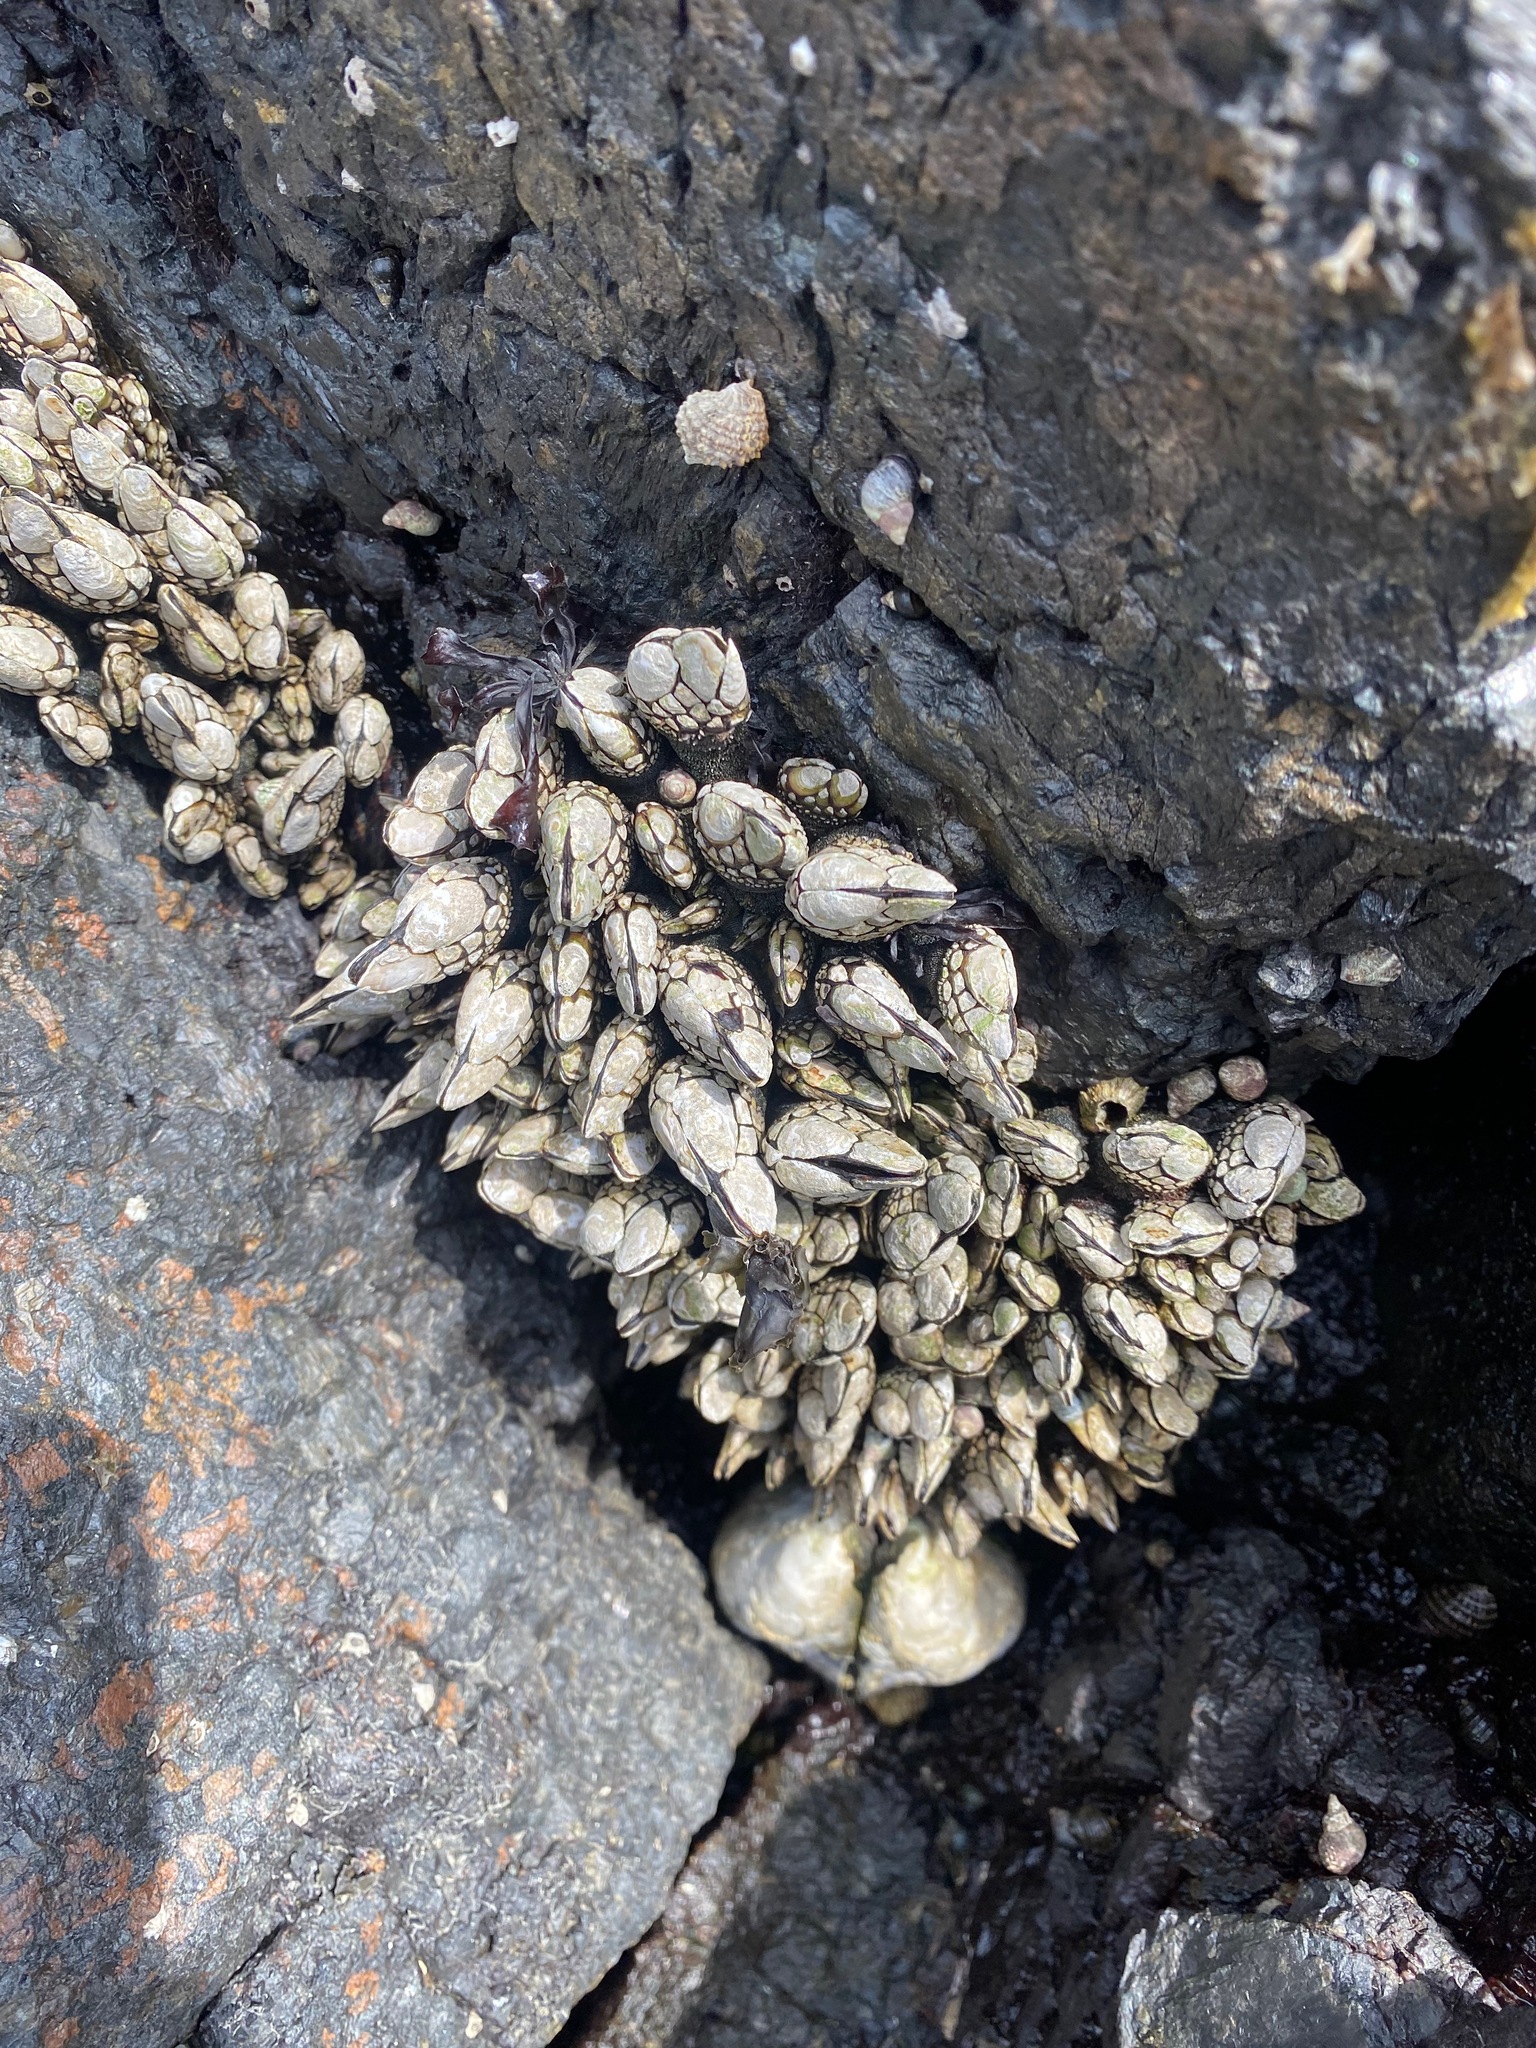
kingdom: Animalia
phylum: Arthropoda
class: Maxillopoda
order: Pedunculata
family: Pollicipedidae
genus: Pollicipes
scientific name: Pollicipes polymerus
